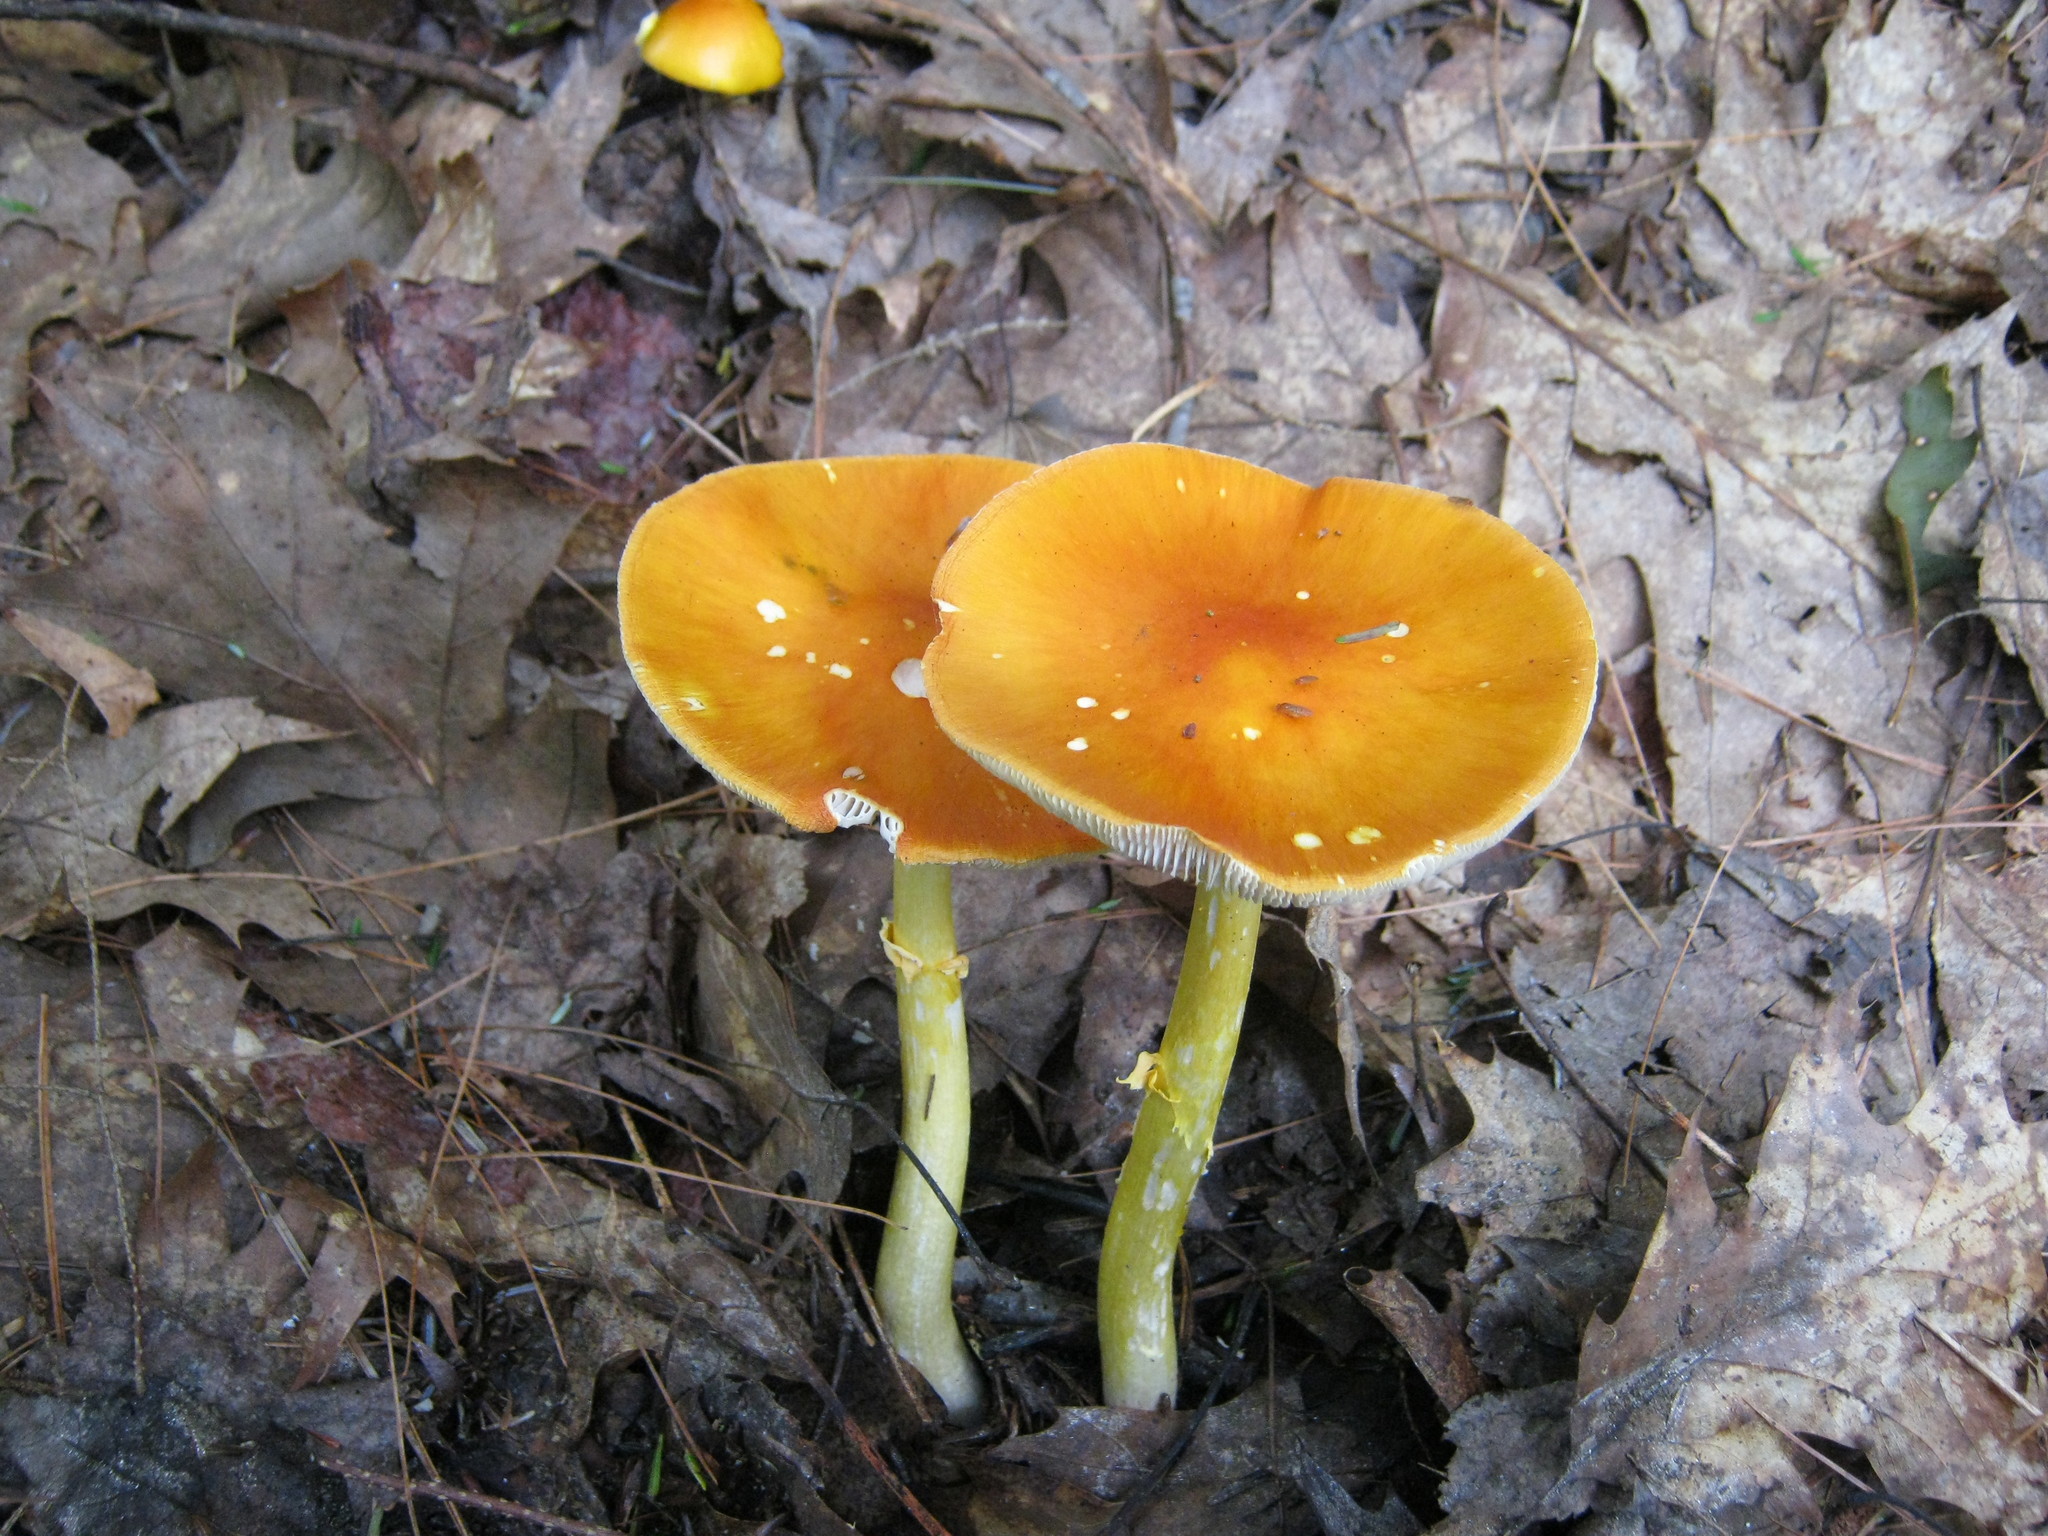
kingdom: Fungi
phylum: Basidiomycota
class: Agaricomycetes
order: Agaricales
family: Amanitaceae
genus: Amanita
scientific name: Amanita flavoconia
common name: Yellow patches
